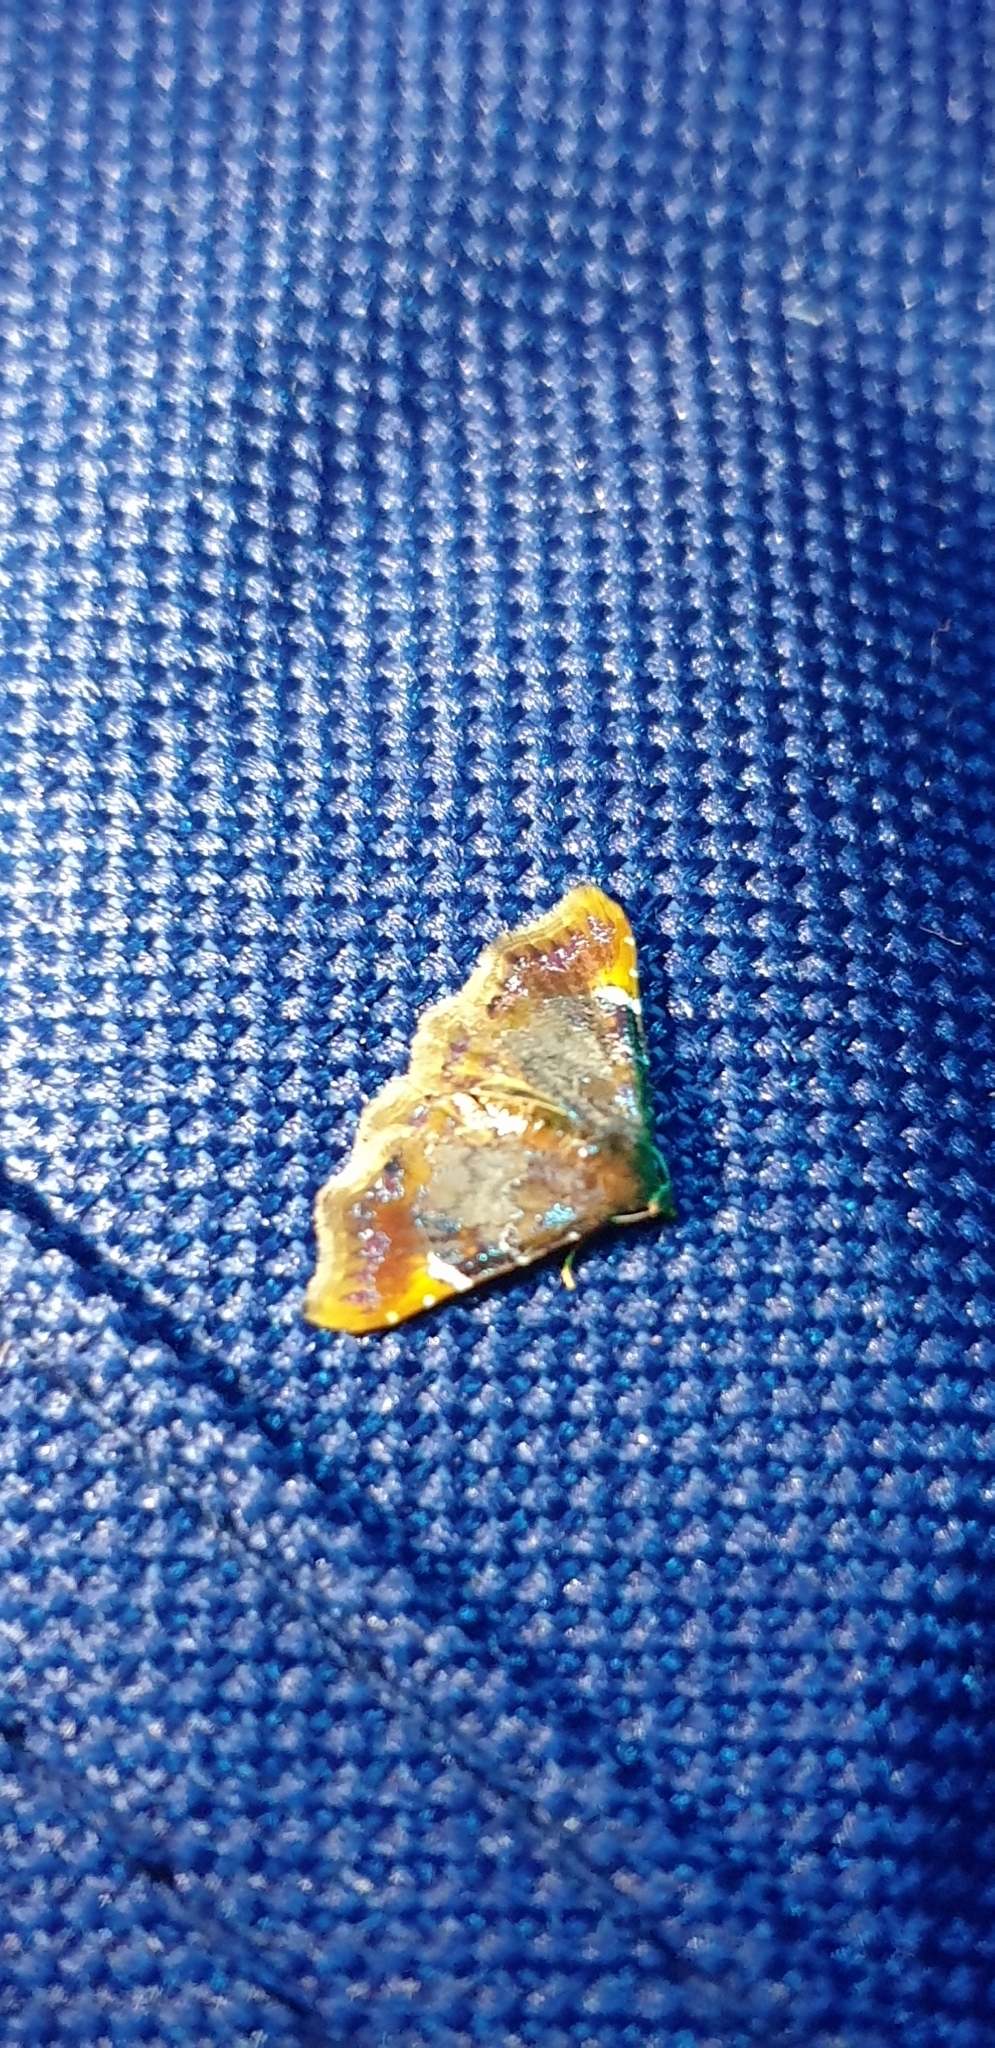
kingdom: Animalia
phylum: Arthropoda
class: Insecta
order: Lepidoptera
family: Erebidae
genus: Corgatha
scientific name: Corgatha drosera
